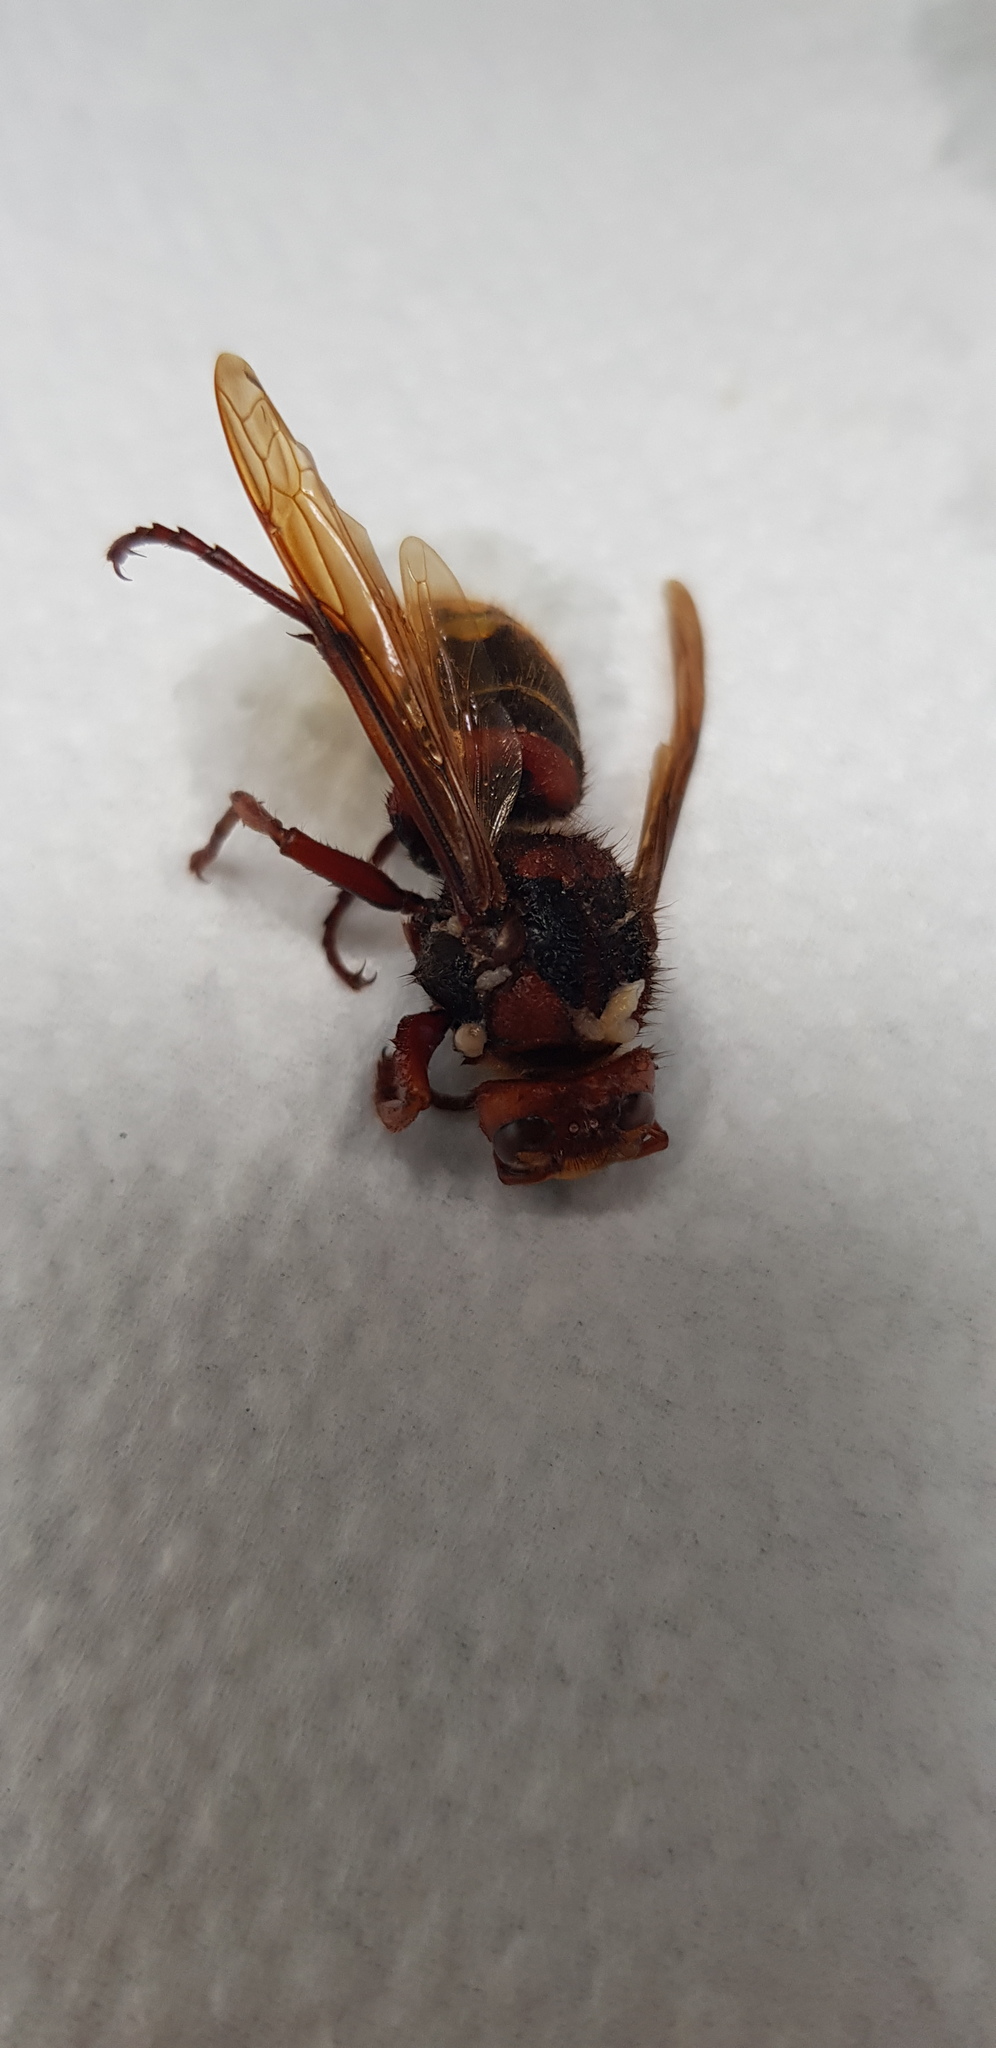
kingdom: Animalia
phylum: Arthropoda
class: Insecta
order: Hymenoptera
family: Vespidae
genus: Vespa
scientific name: Vespa crabro
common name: Hornet
